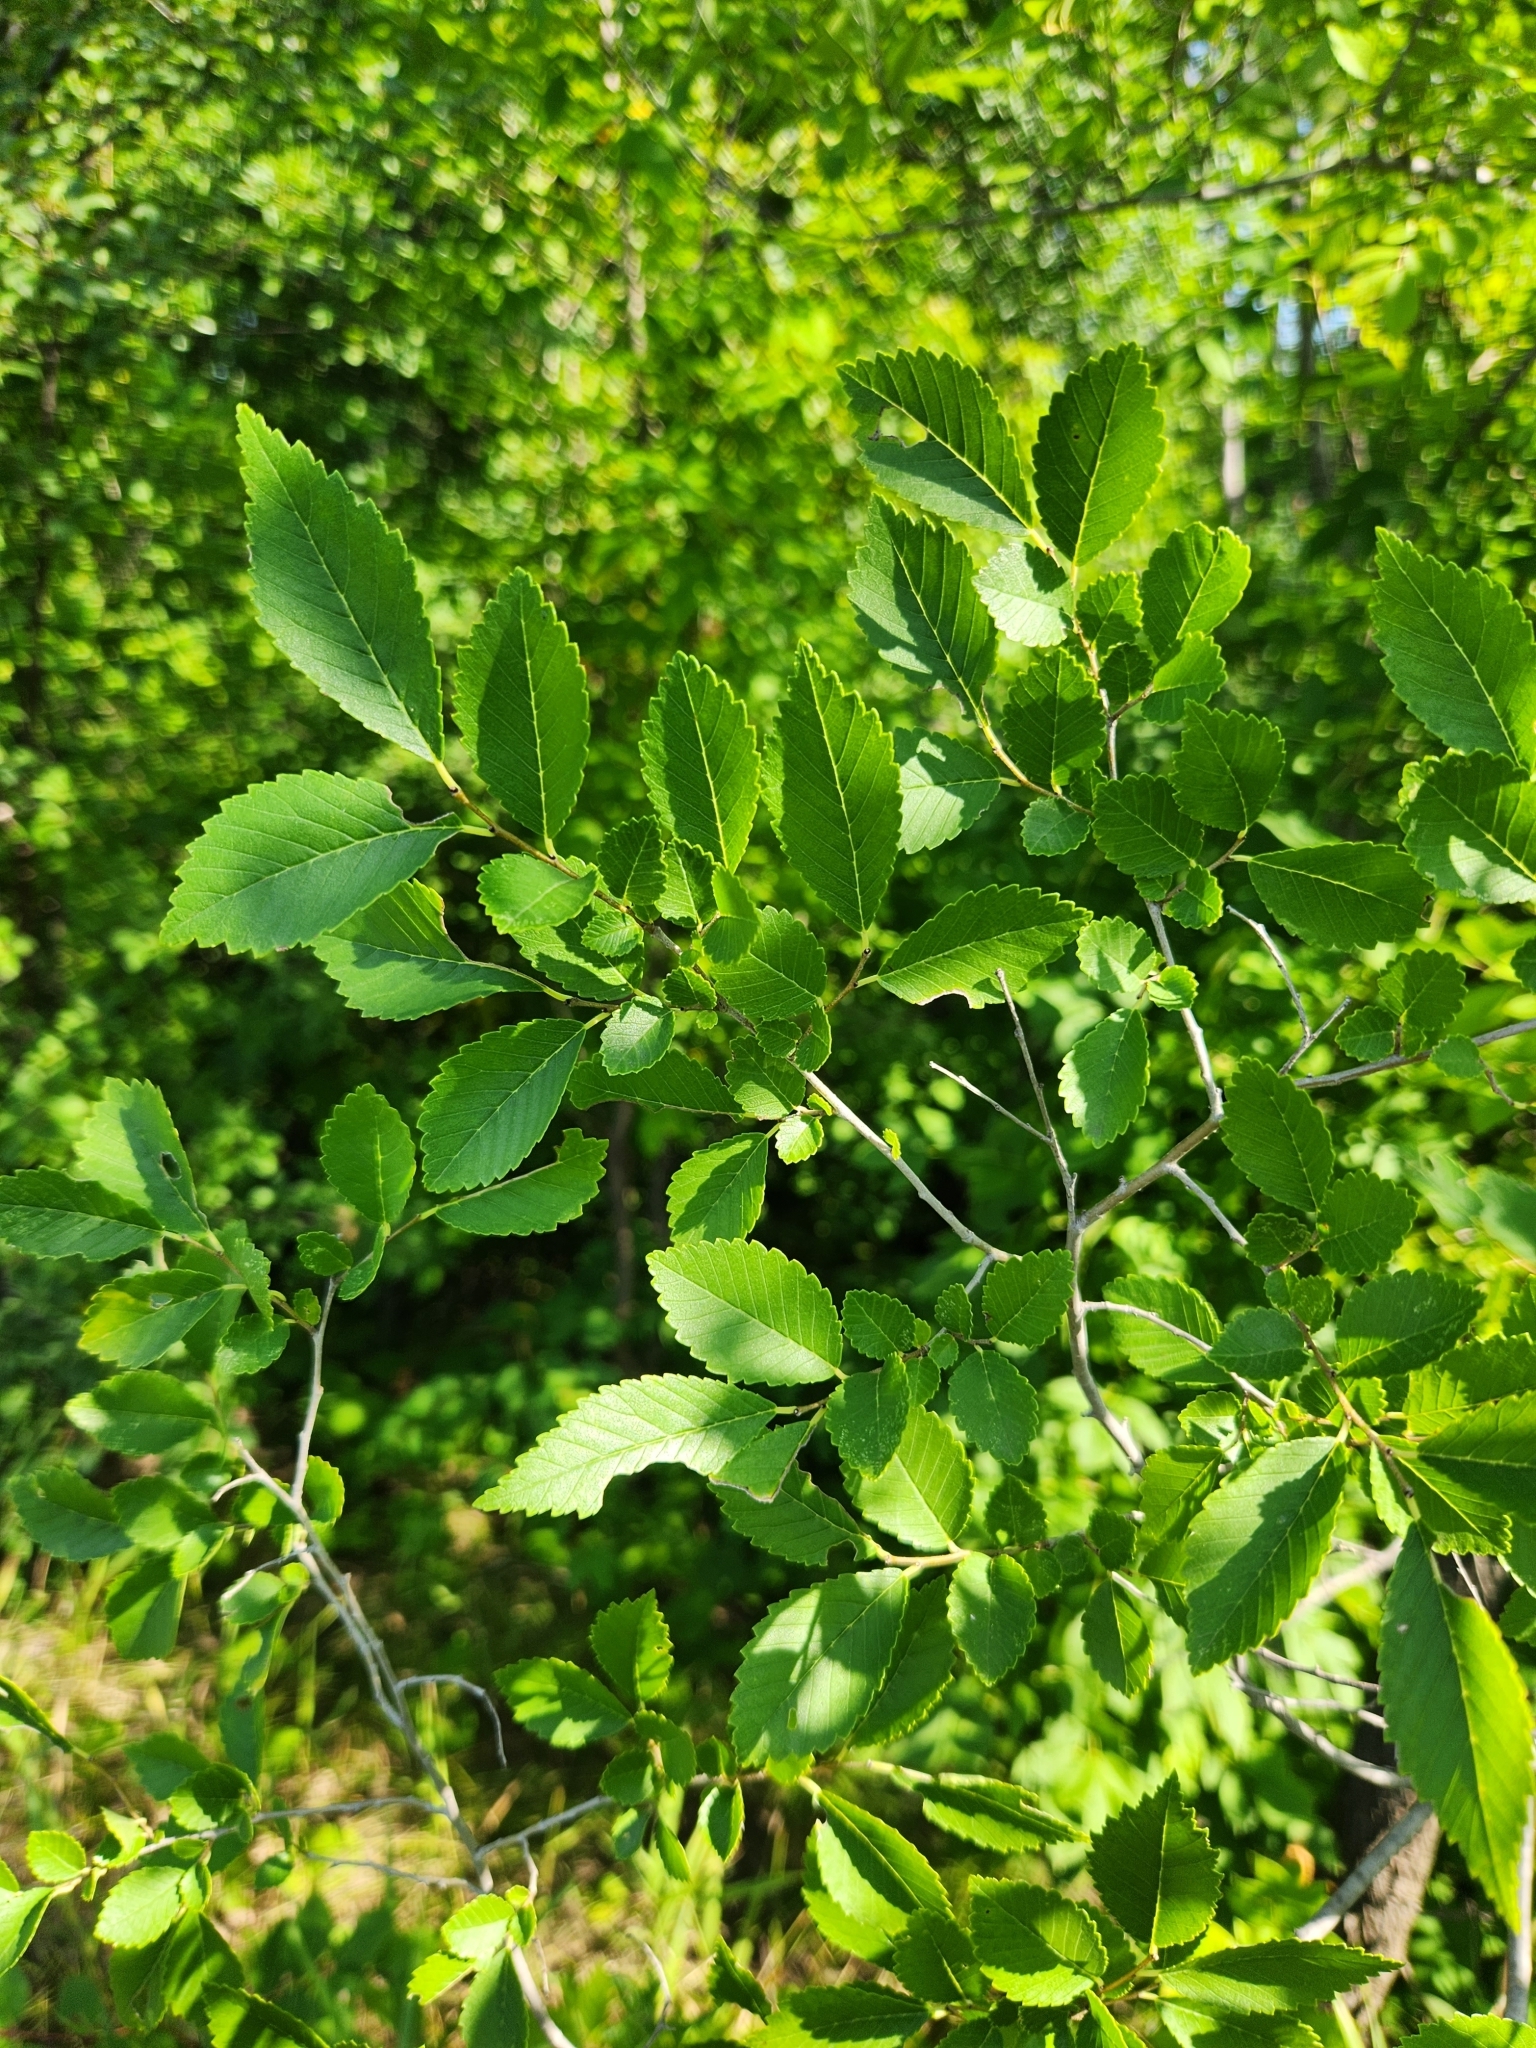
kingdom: Plantae
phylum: Tracheophyta
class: Magnoliopsida
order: Rosales
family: Ulmaceae
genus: Ulmus
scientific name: Ulmus pumila
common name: Siberian elm
